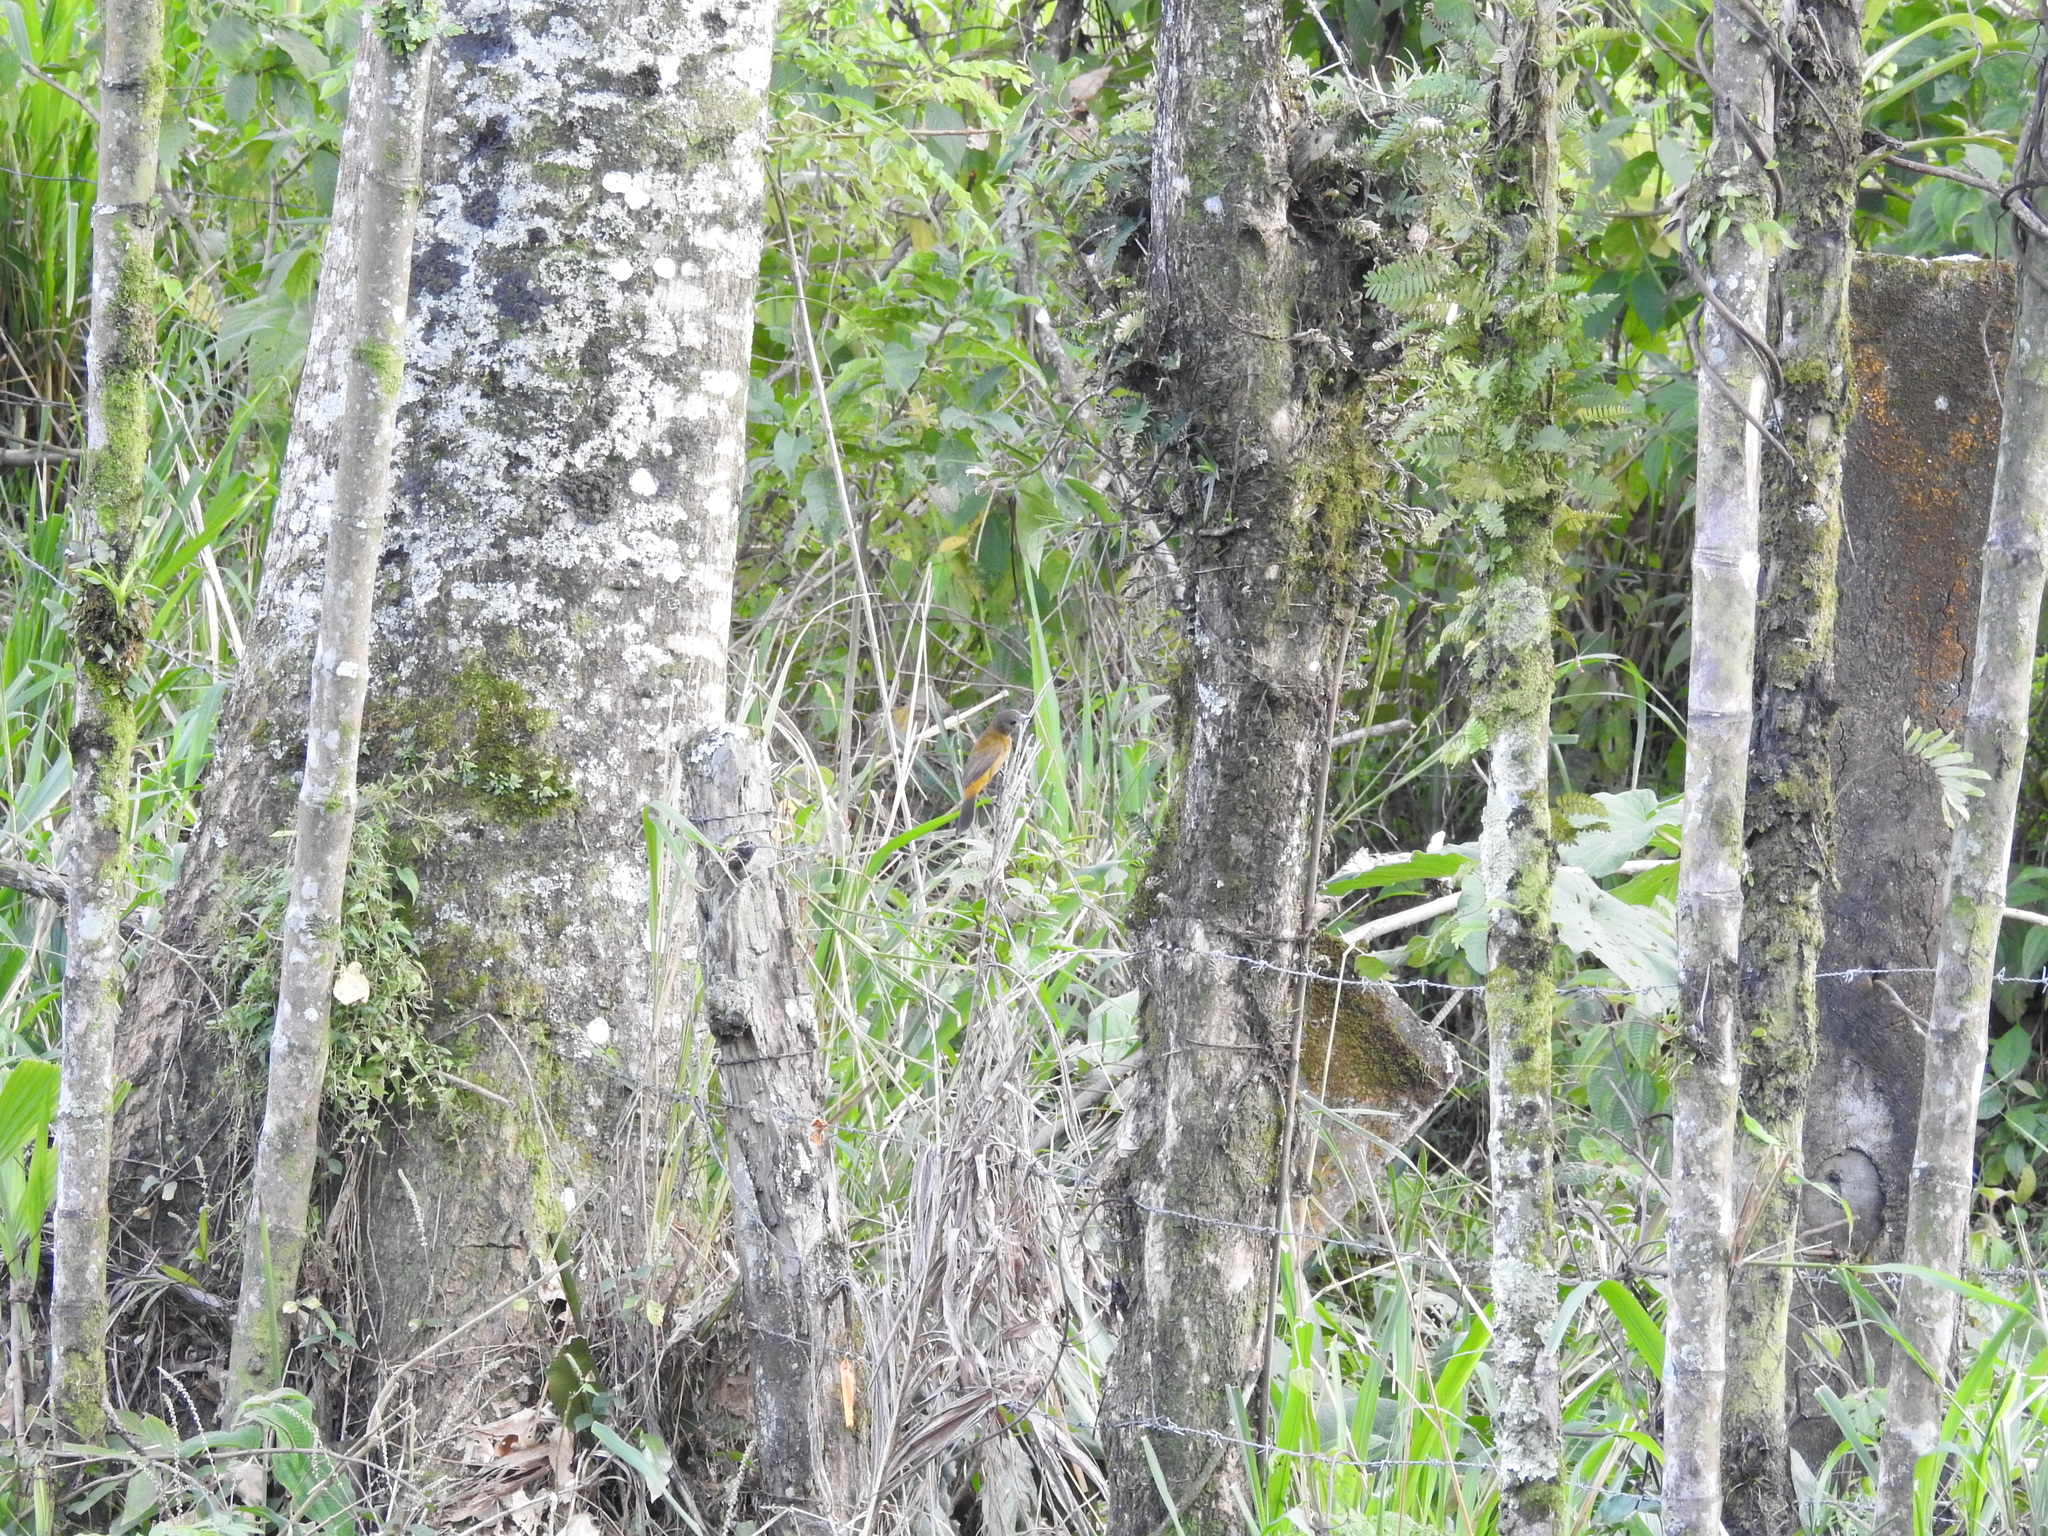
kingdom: Animalia
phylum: Chordata
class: Aves
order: Passeriformes
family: Thraupidae
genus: Ramphocelus
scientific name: Ramphocelus passerinii
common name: Passerini's tanager
